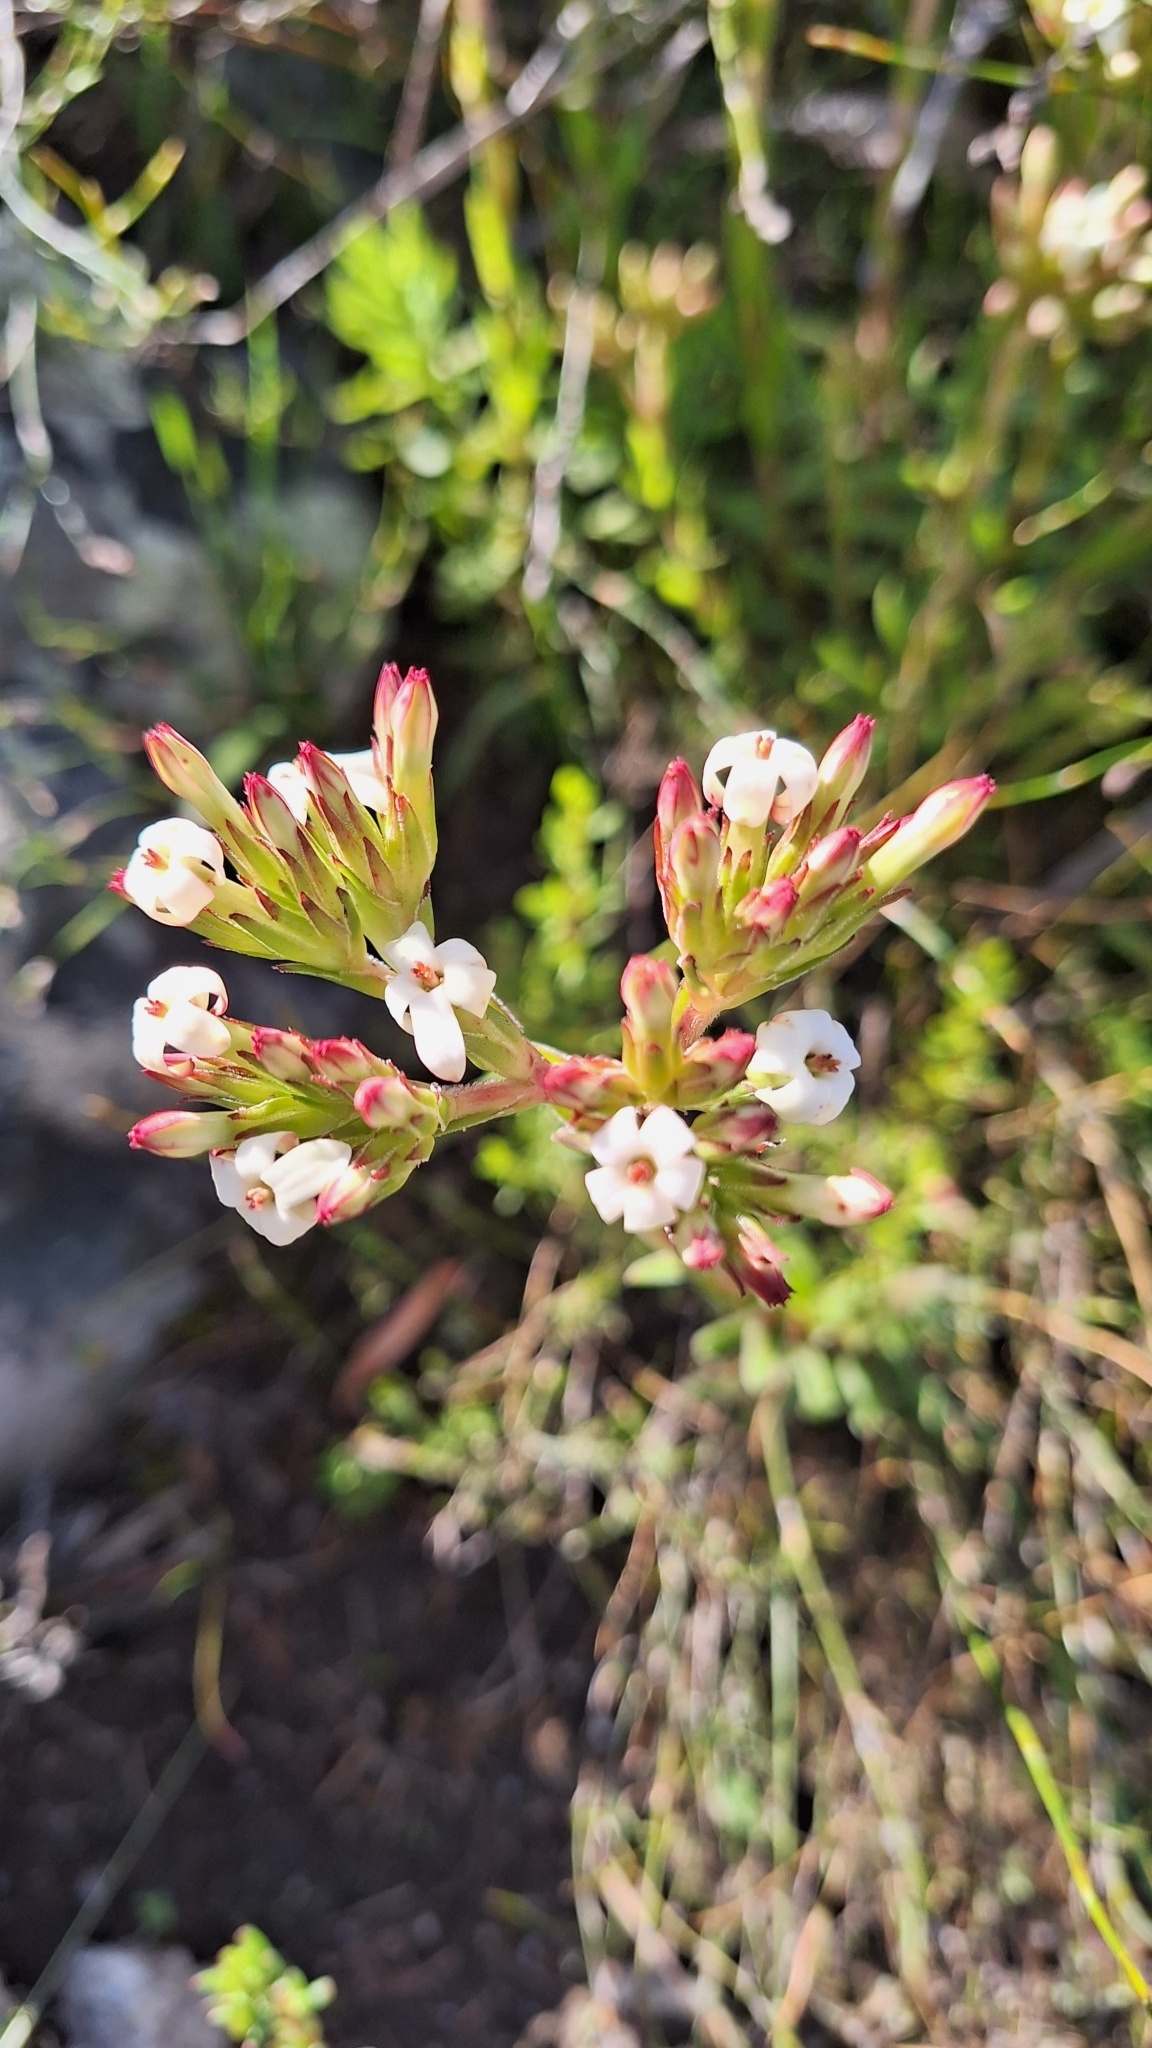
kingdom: Plantae
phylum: Tracheophyta
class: Magnoliopsida
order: Saxifragales
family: Crassulaceae
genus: Crassula
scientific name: Crassula fascicularis
